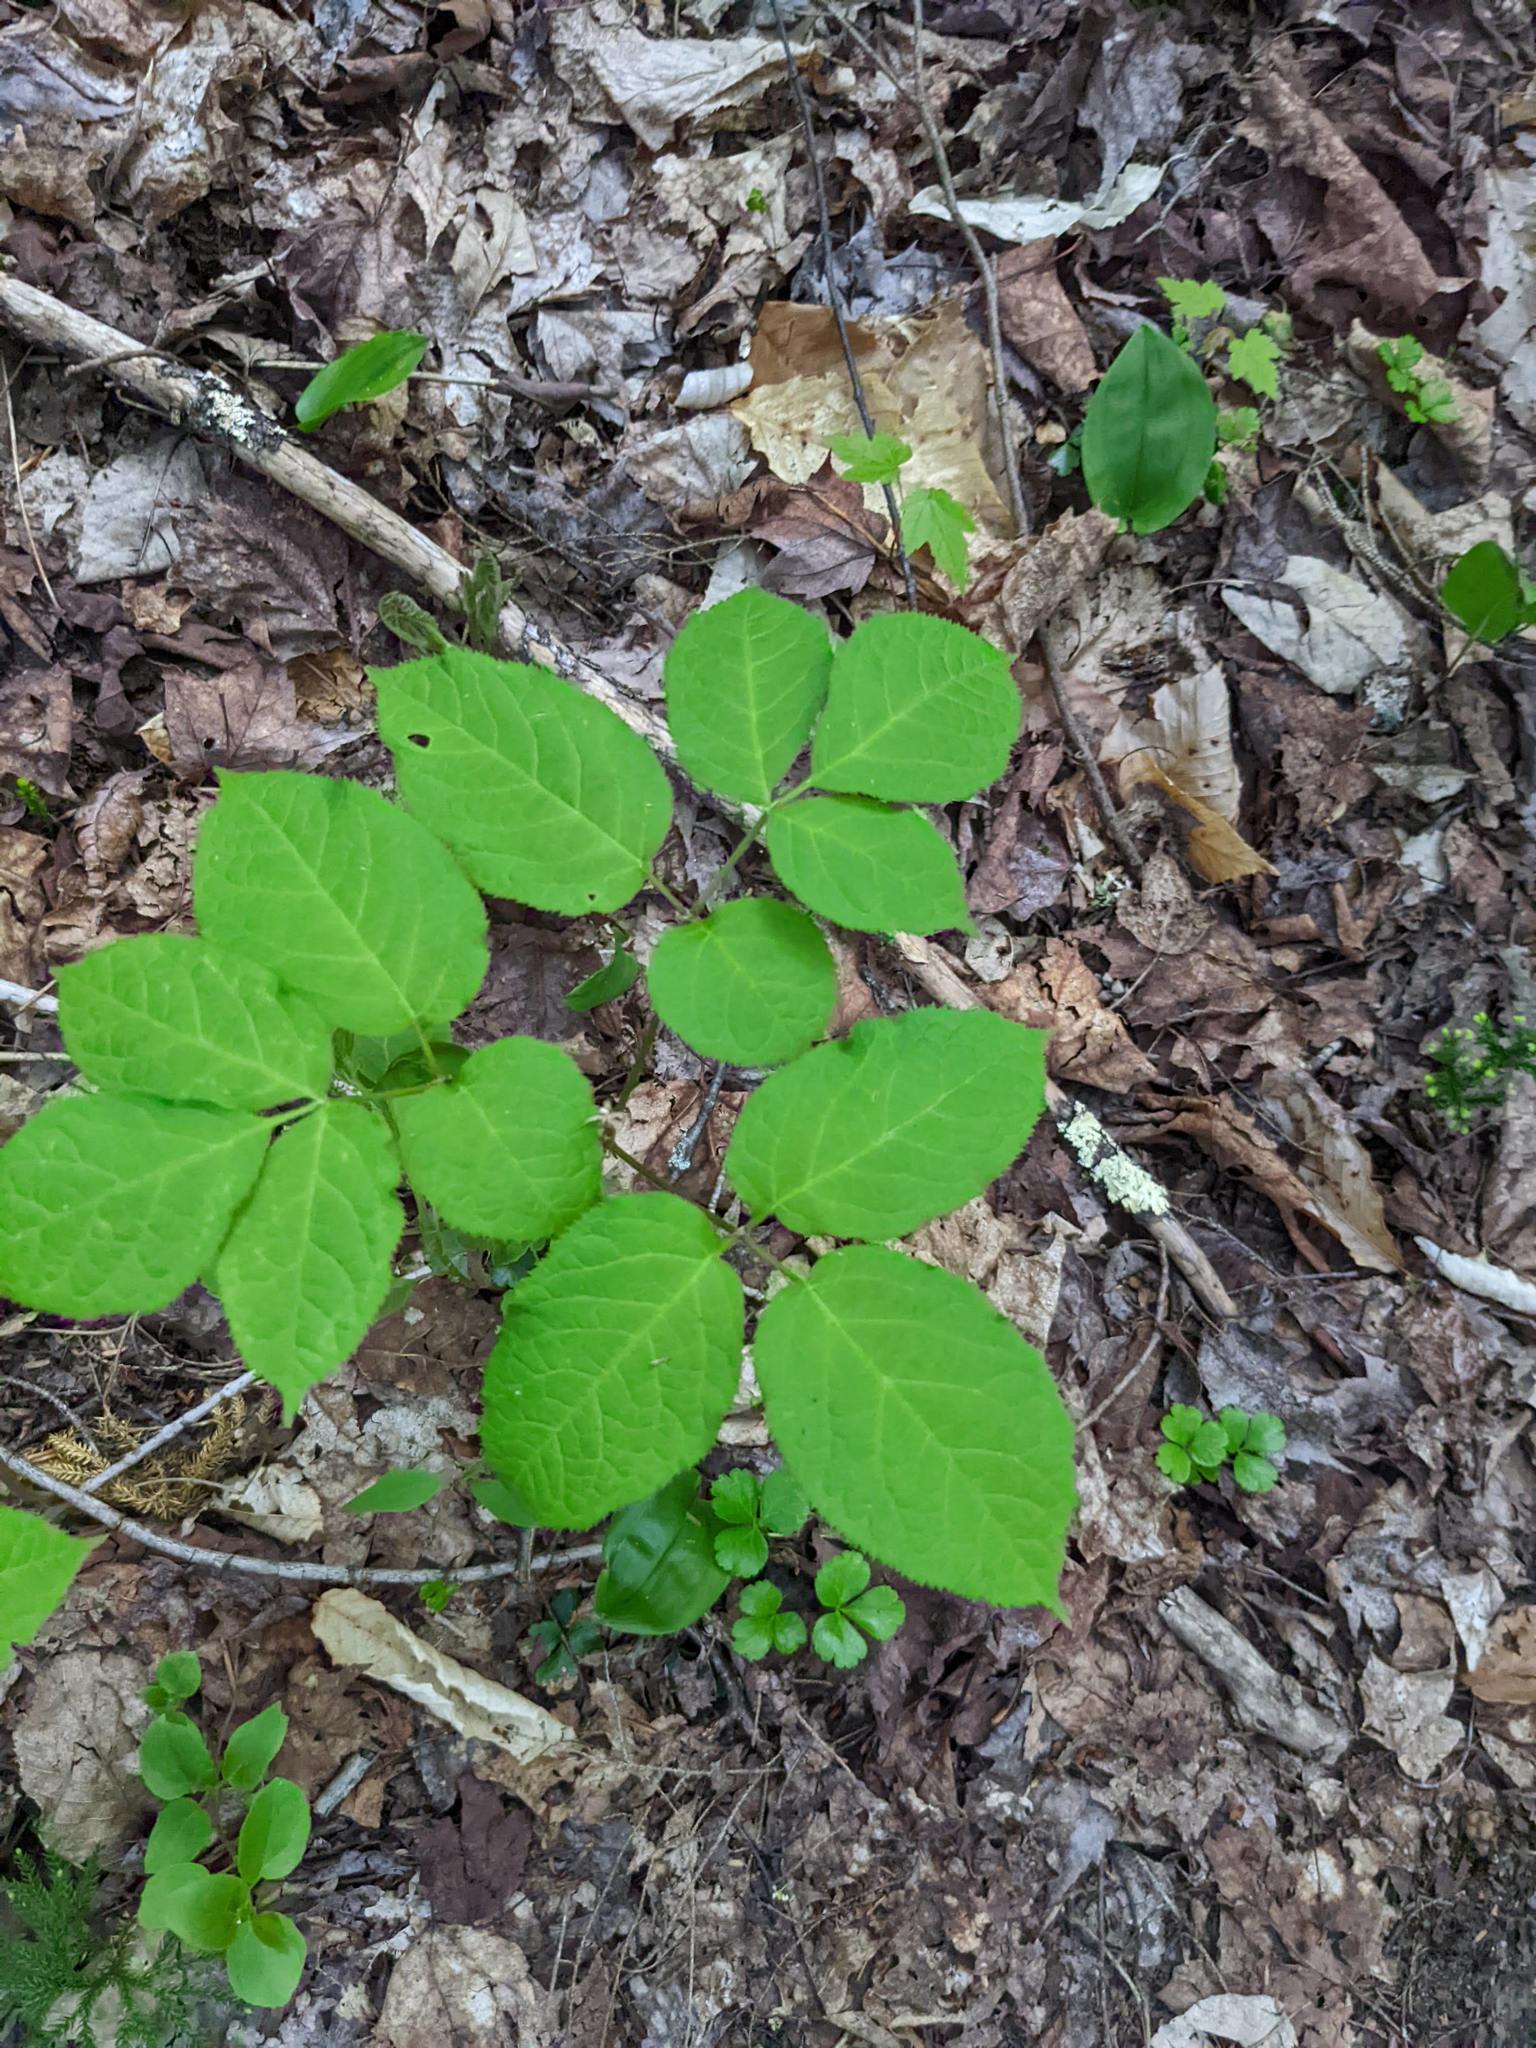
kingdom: Plantae
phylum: Tracheophyta
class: Magnoliopsida
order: Apiales
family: Araliaceae
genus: Aralia
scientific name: Aralia nudicaulis
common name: Wild sarsaparilla
